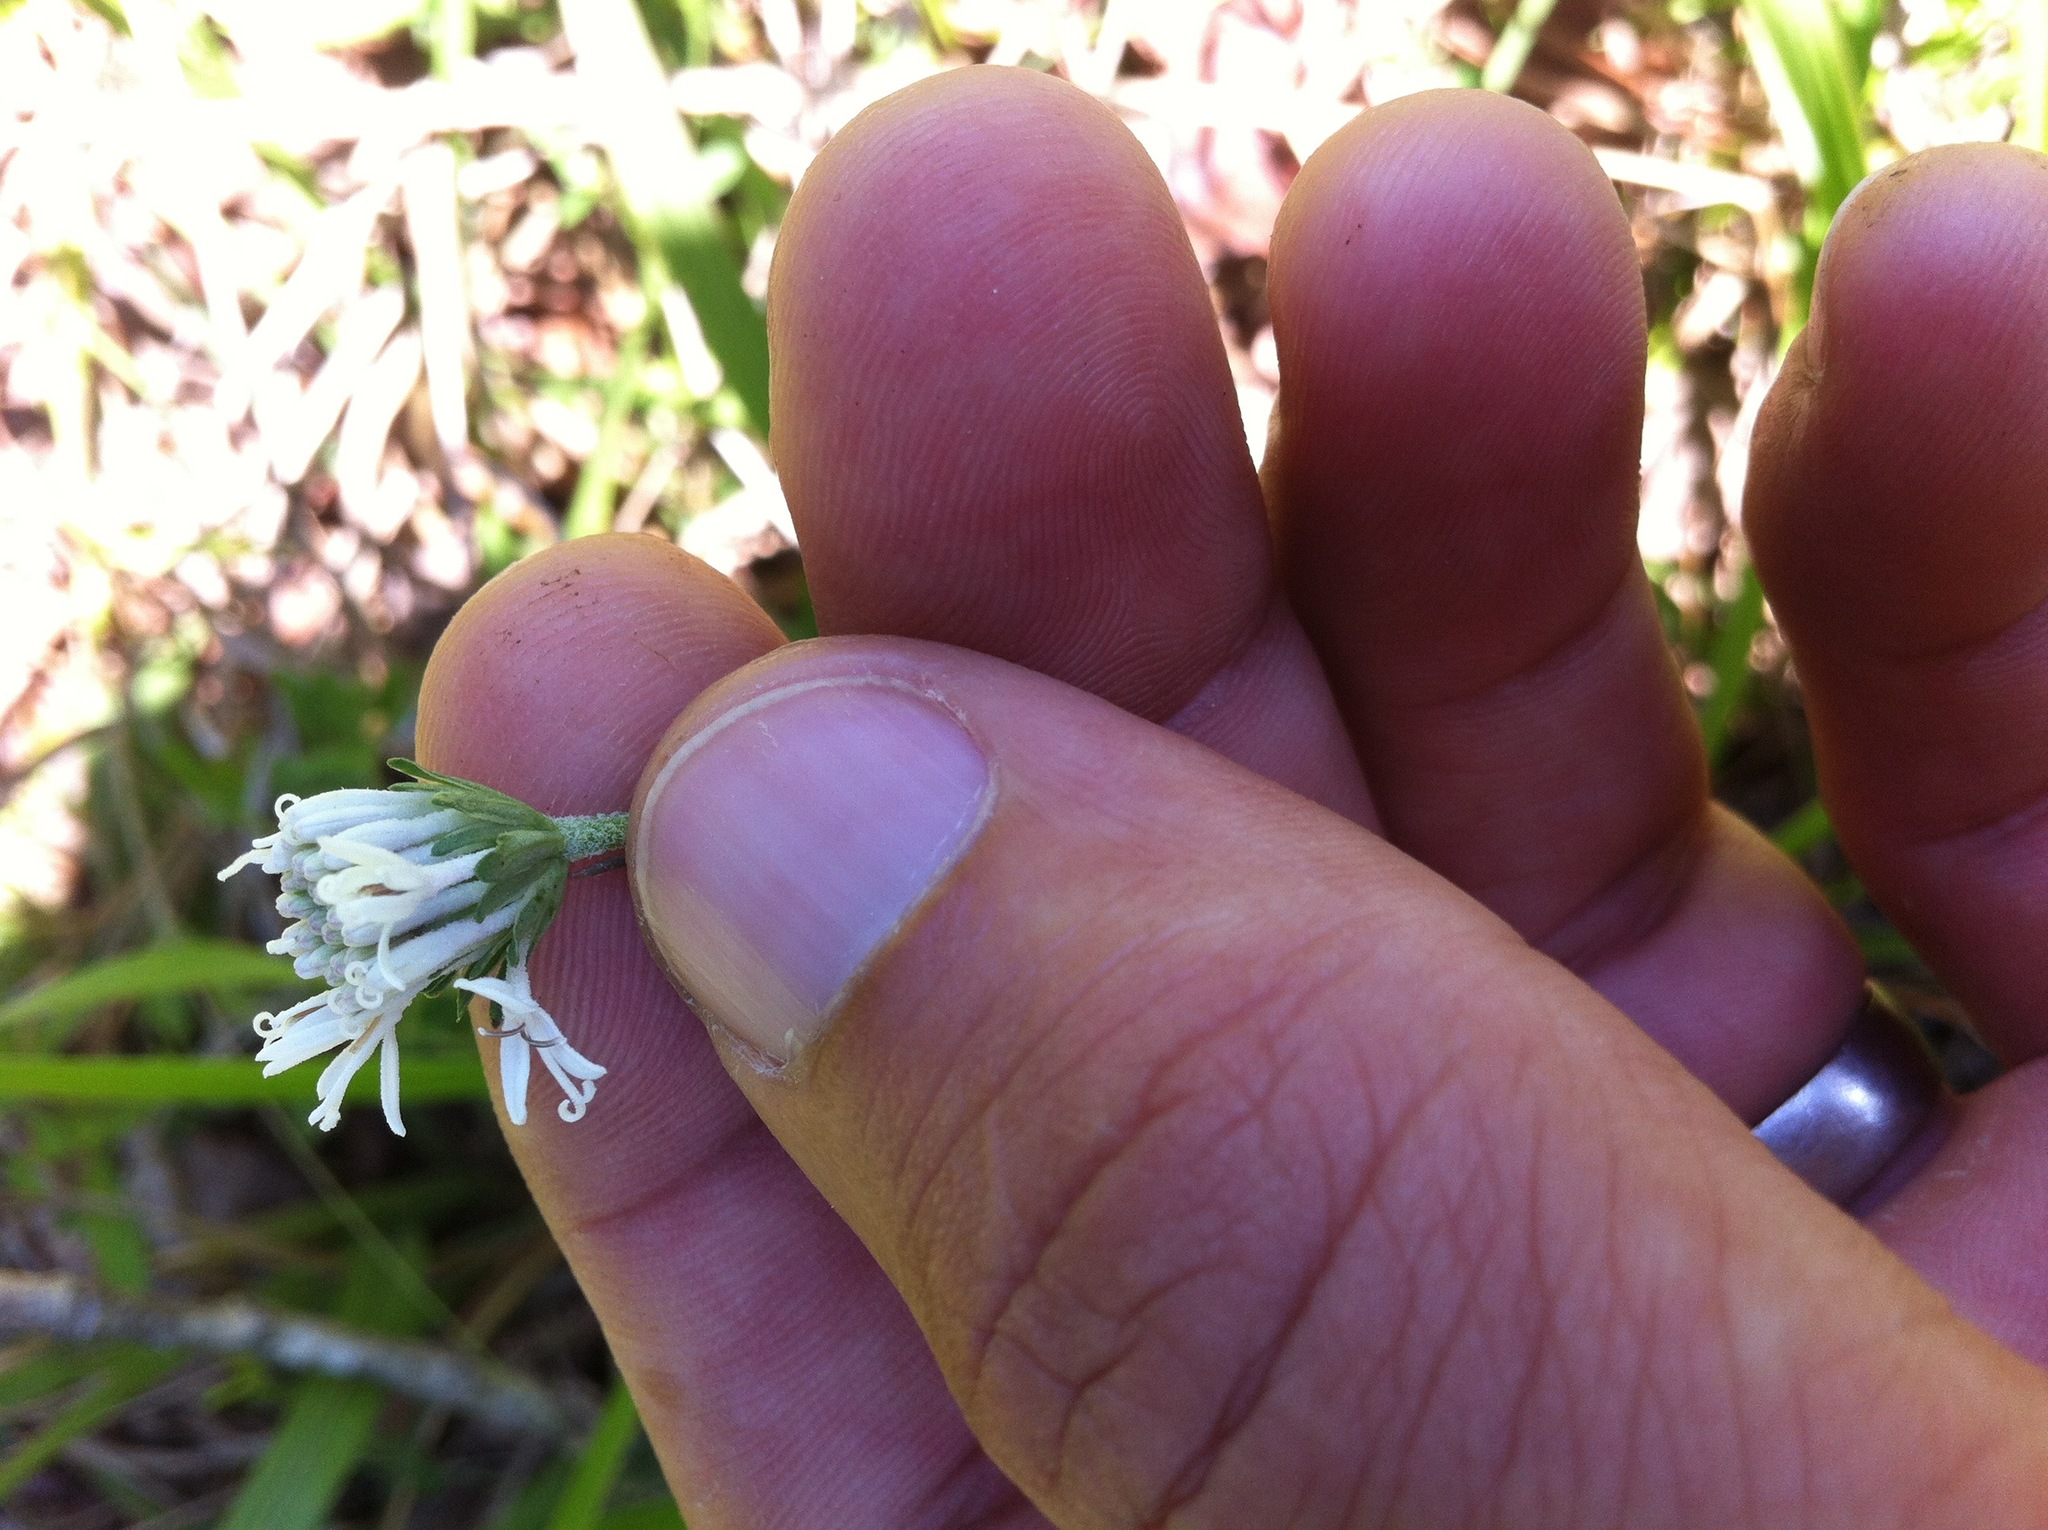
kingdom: Plantae
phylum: Tracheophyta
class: Magnoliopsida
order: Asterales
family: Asteraceae
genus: Marshallia
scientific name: Marshallia obovata
